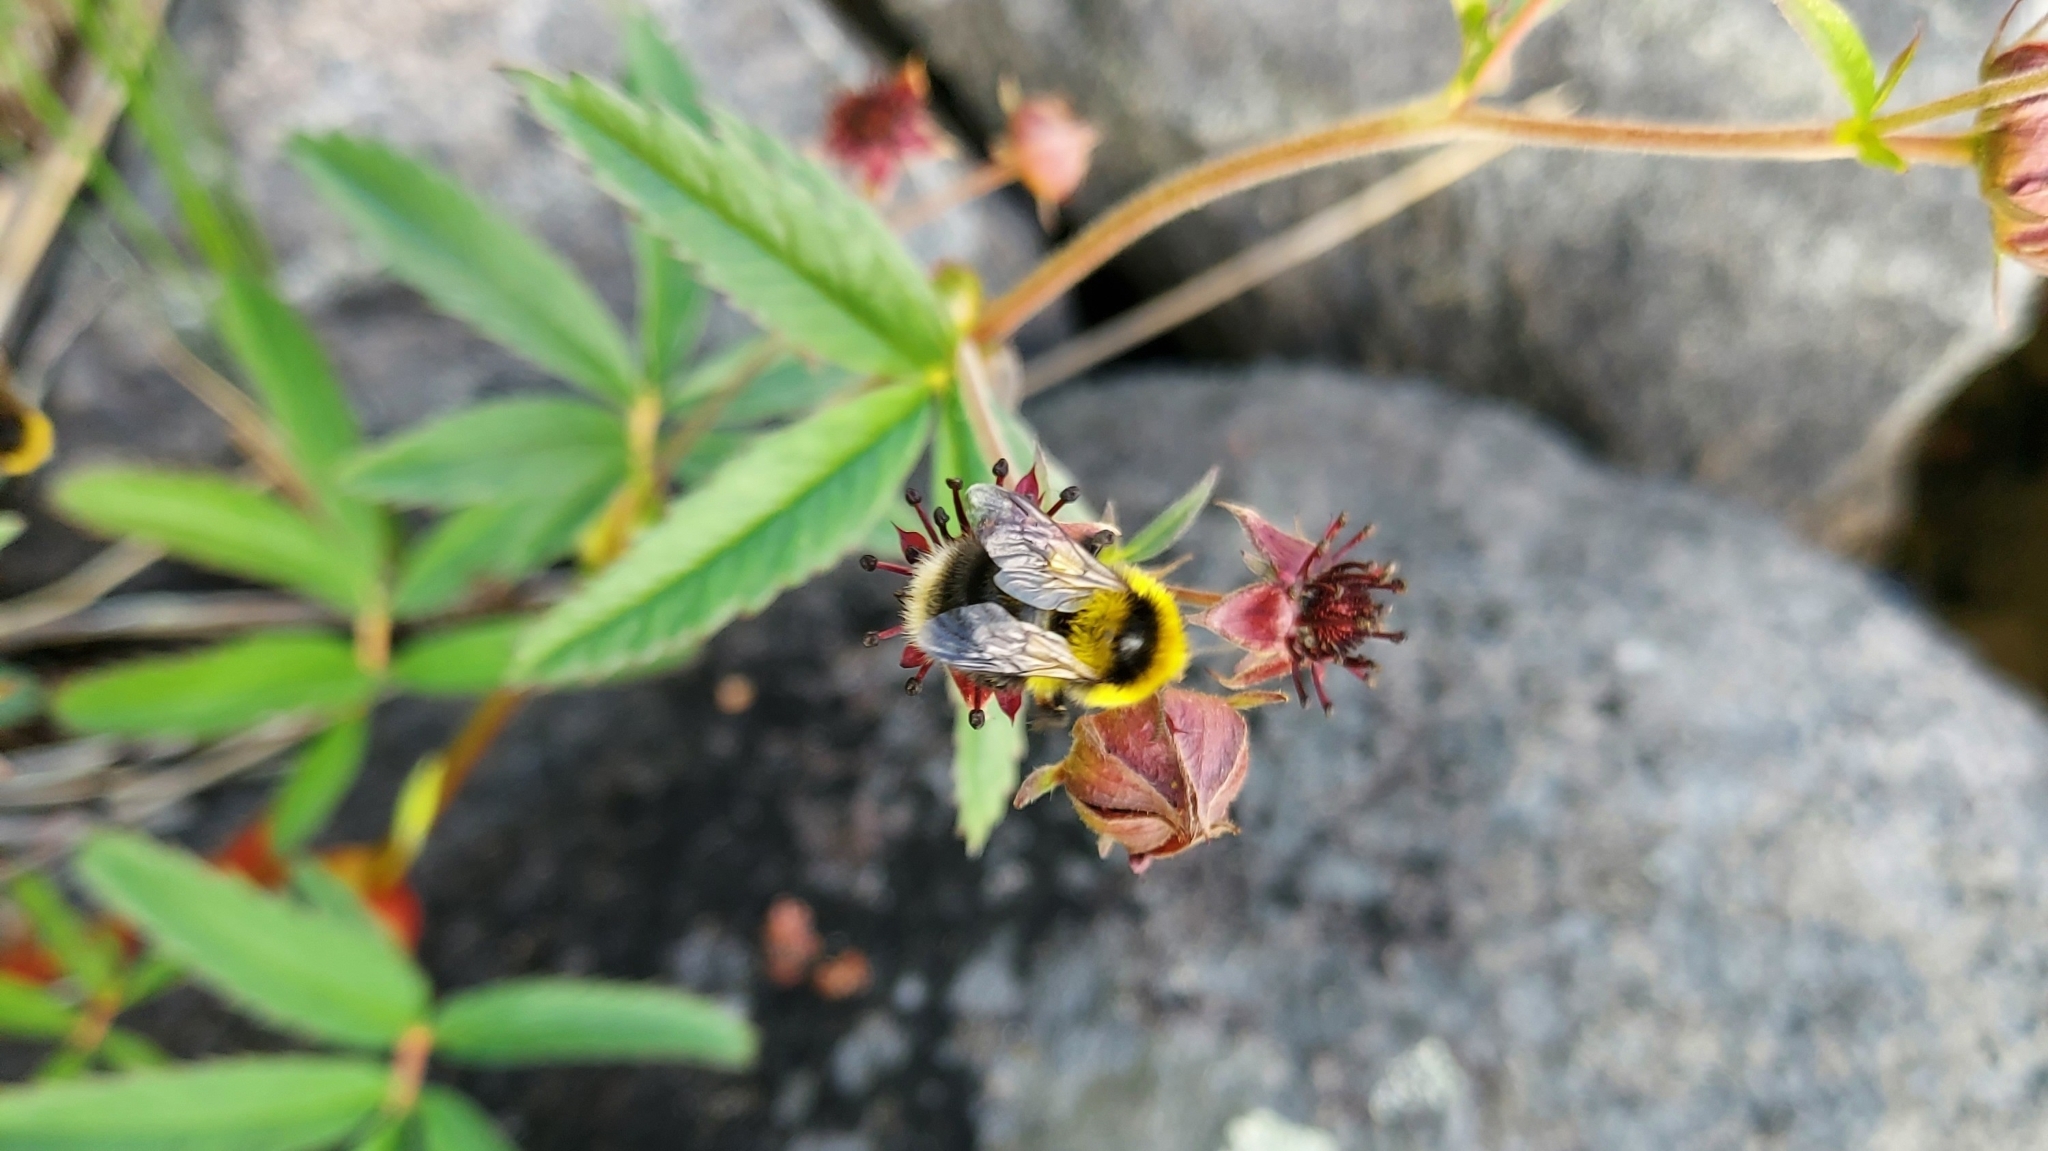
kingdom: Animalia
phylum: Arthropoda
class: Insecta
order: Hymenoptera
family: Apidae
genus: Bombus
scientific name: Bombus jonellus
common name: Heath humble-bee
